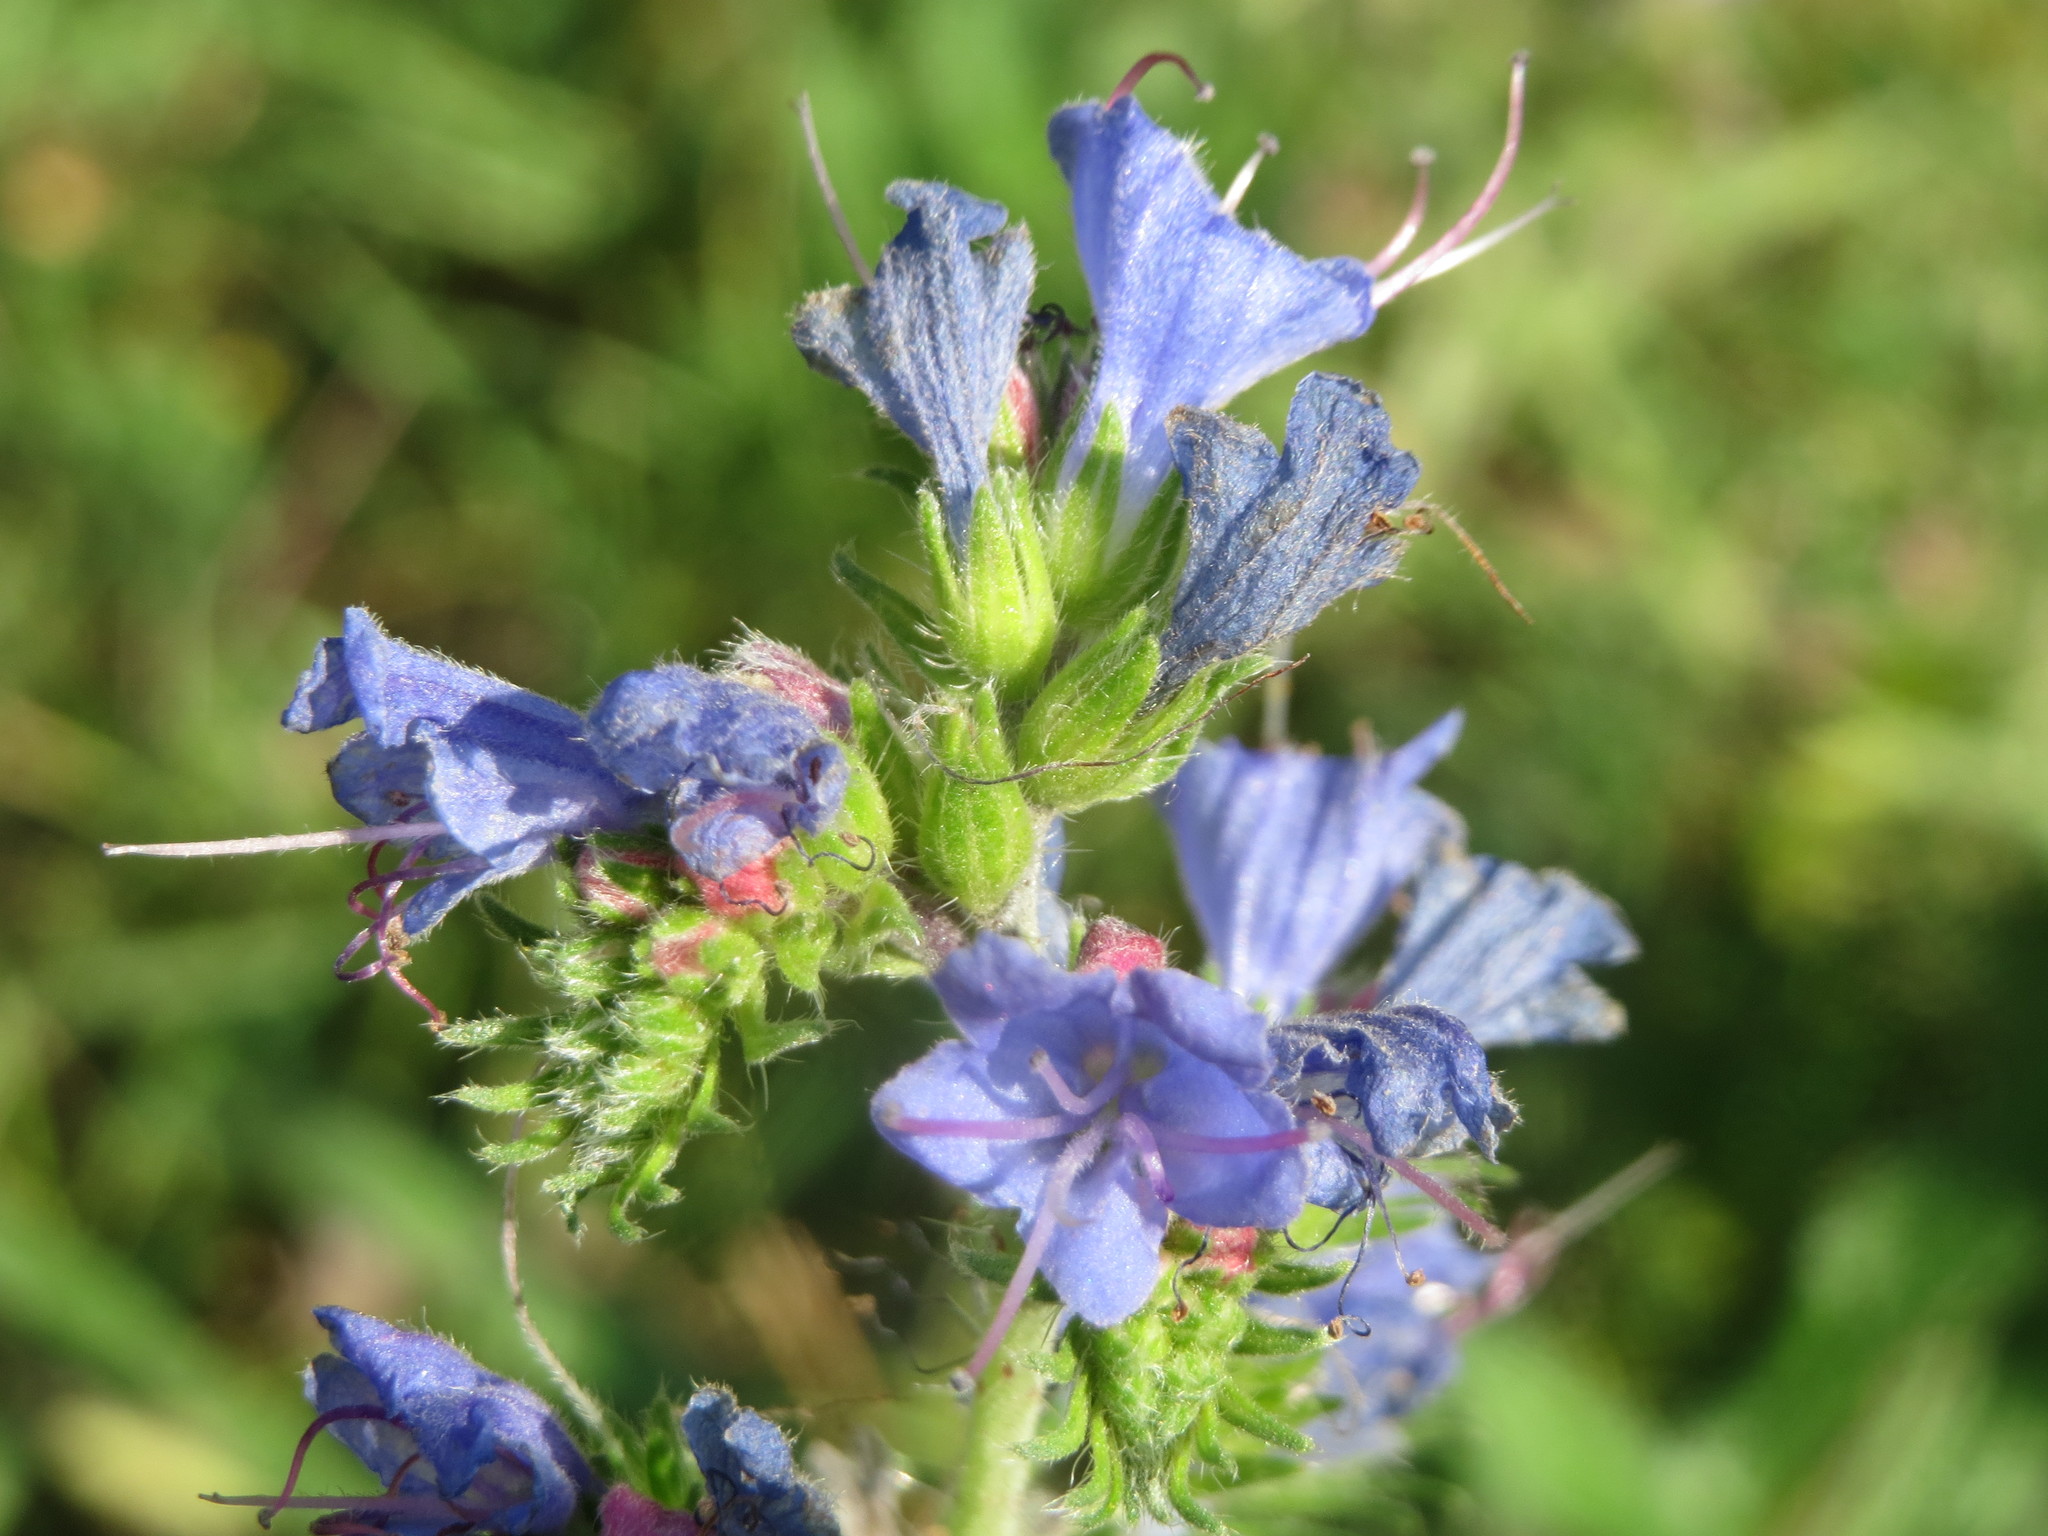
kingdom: Plantae
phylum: Tracheophyta
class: Magnoliopsida
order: Boraginales
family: Boraginaceae
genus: Echium
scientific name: Echium vulgare
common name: Common viper's bugloss
